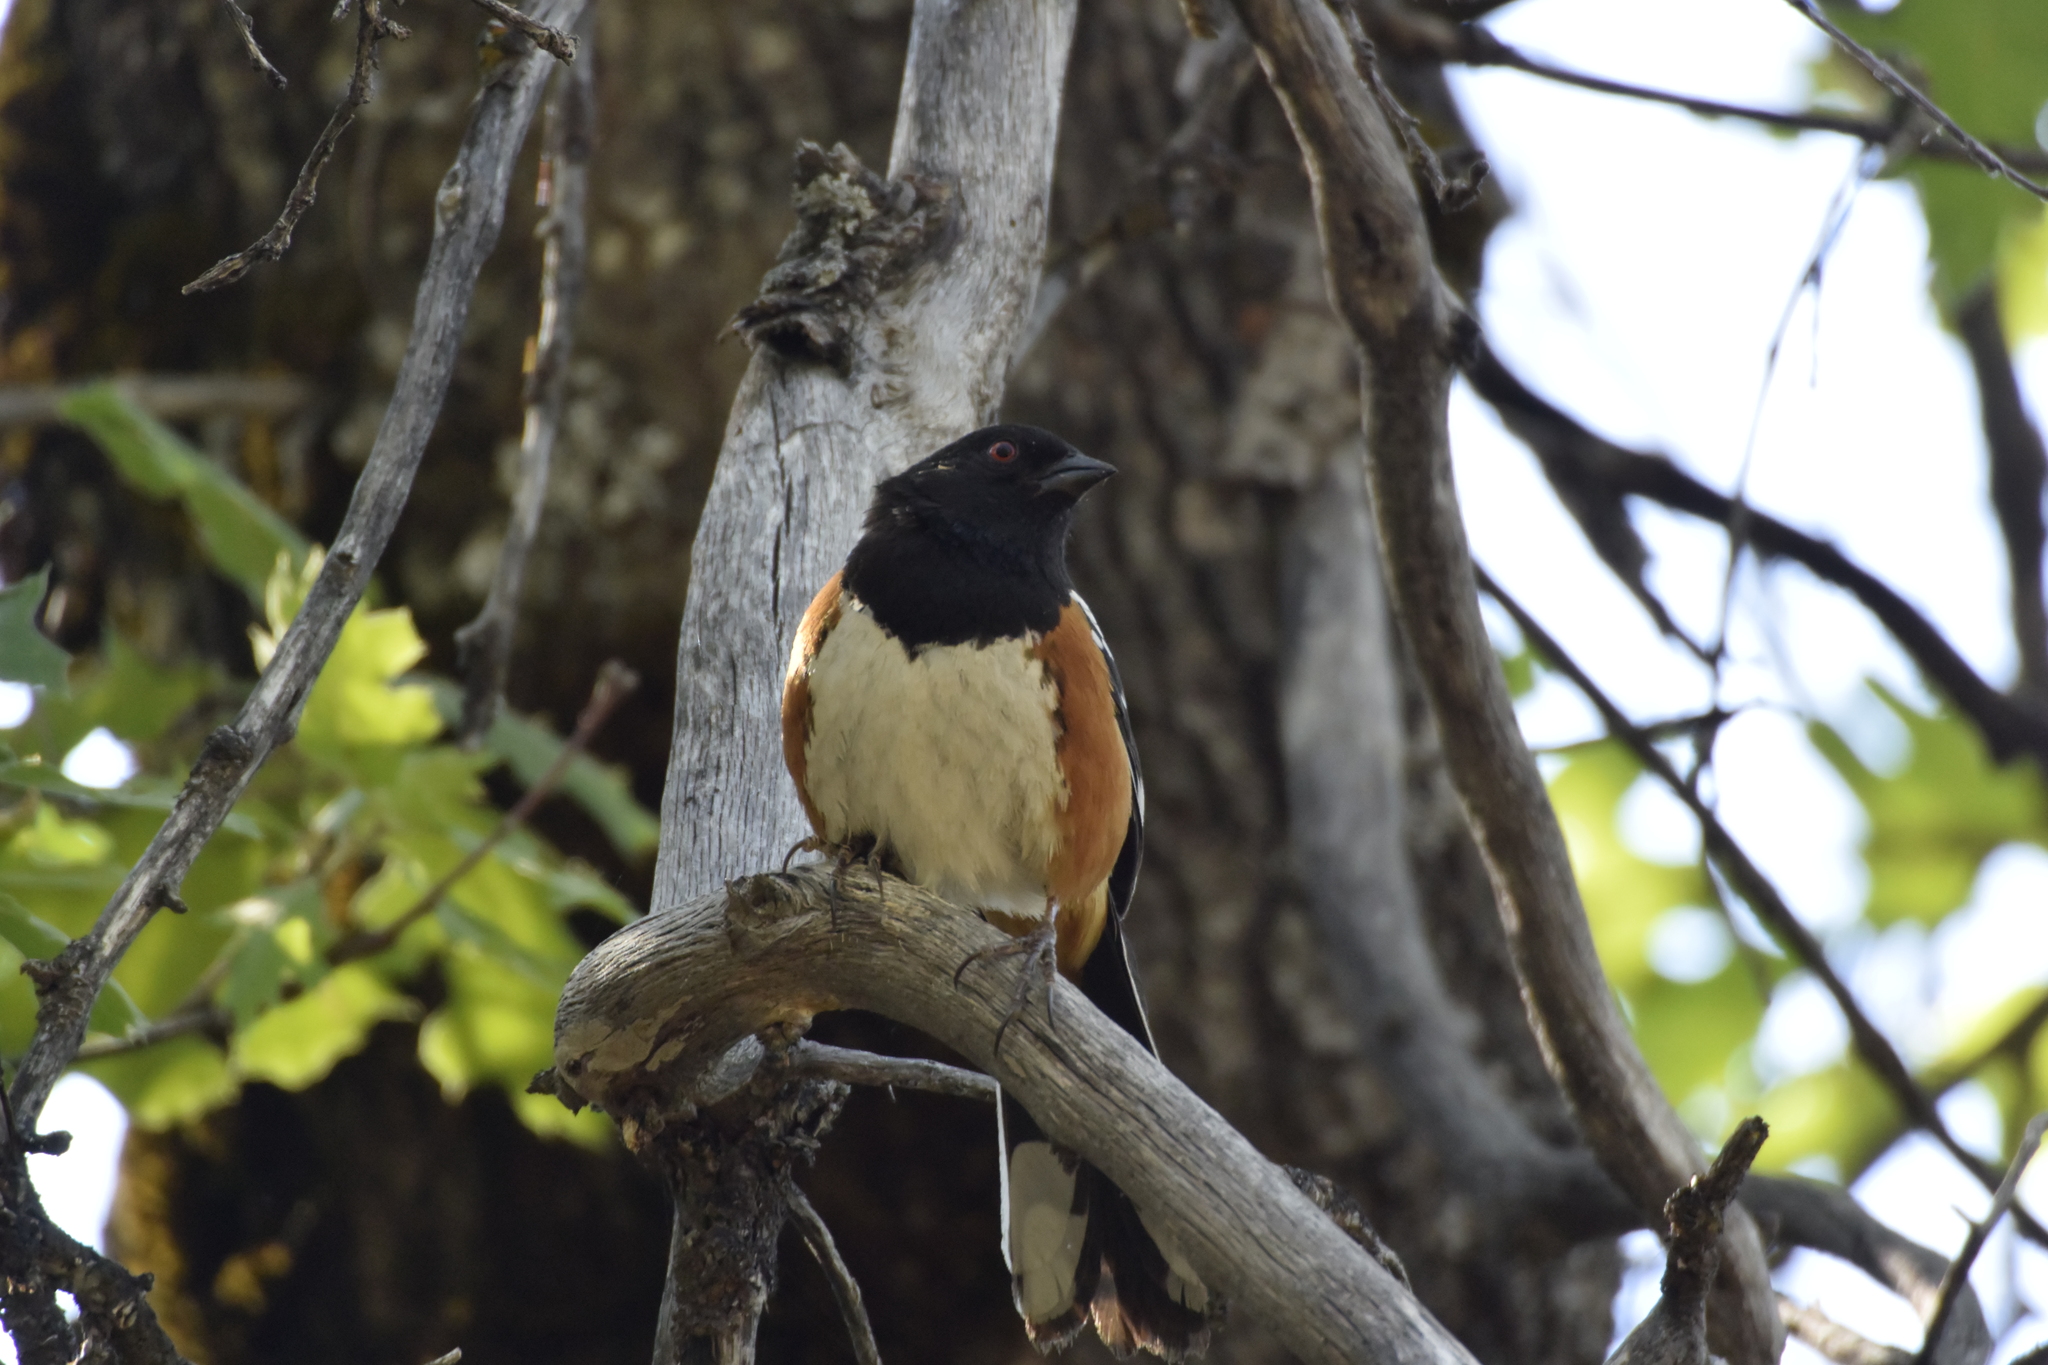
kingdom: Animalia
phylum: Chordata
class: Aves
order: Passeriformes
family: Passerellidae
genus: Pipilo
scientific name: Pipilo maculatus
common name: Spotted towhee
